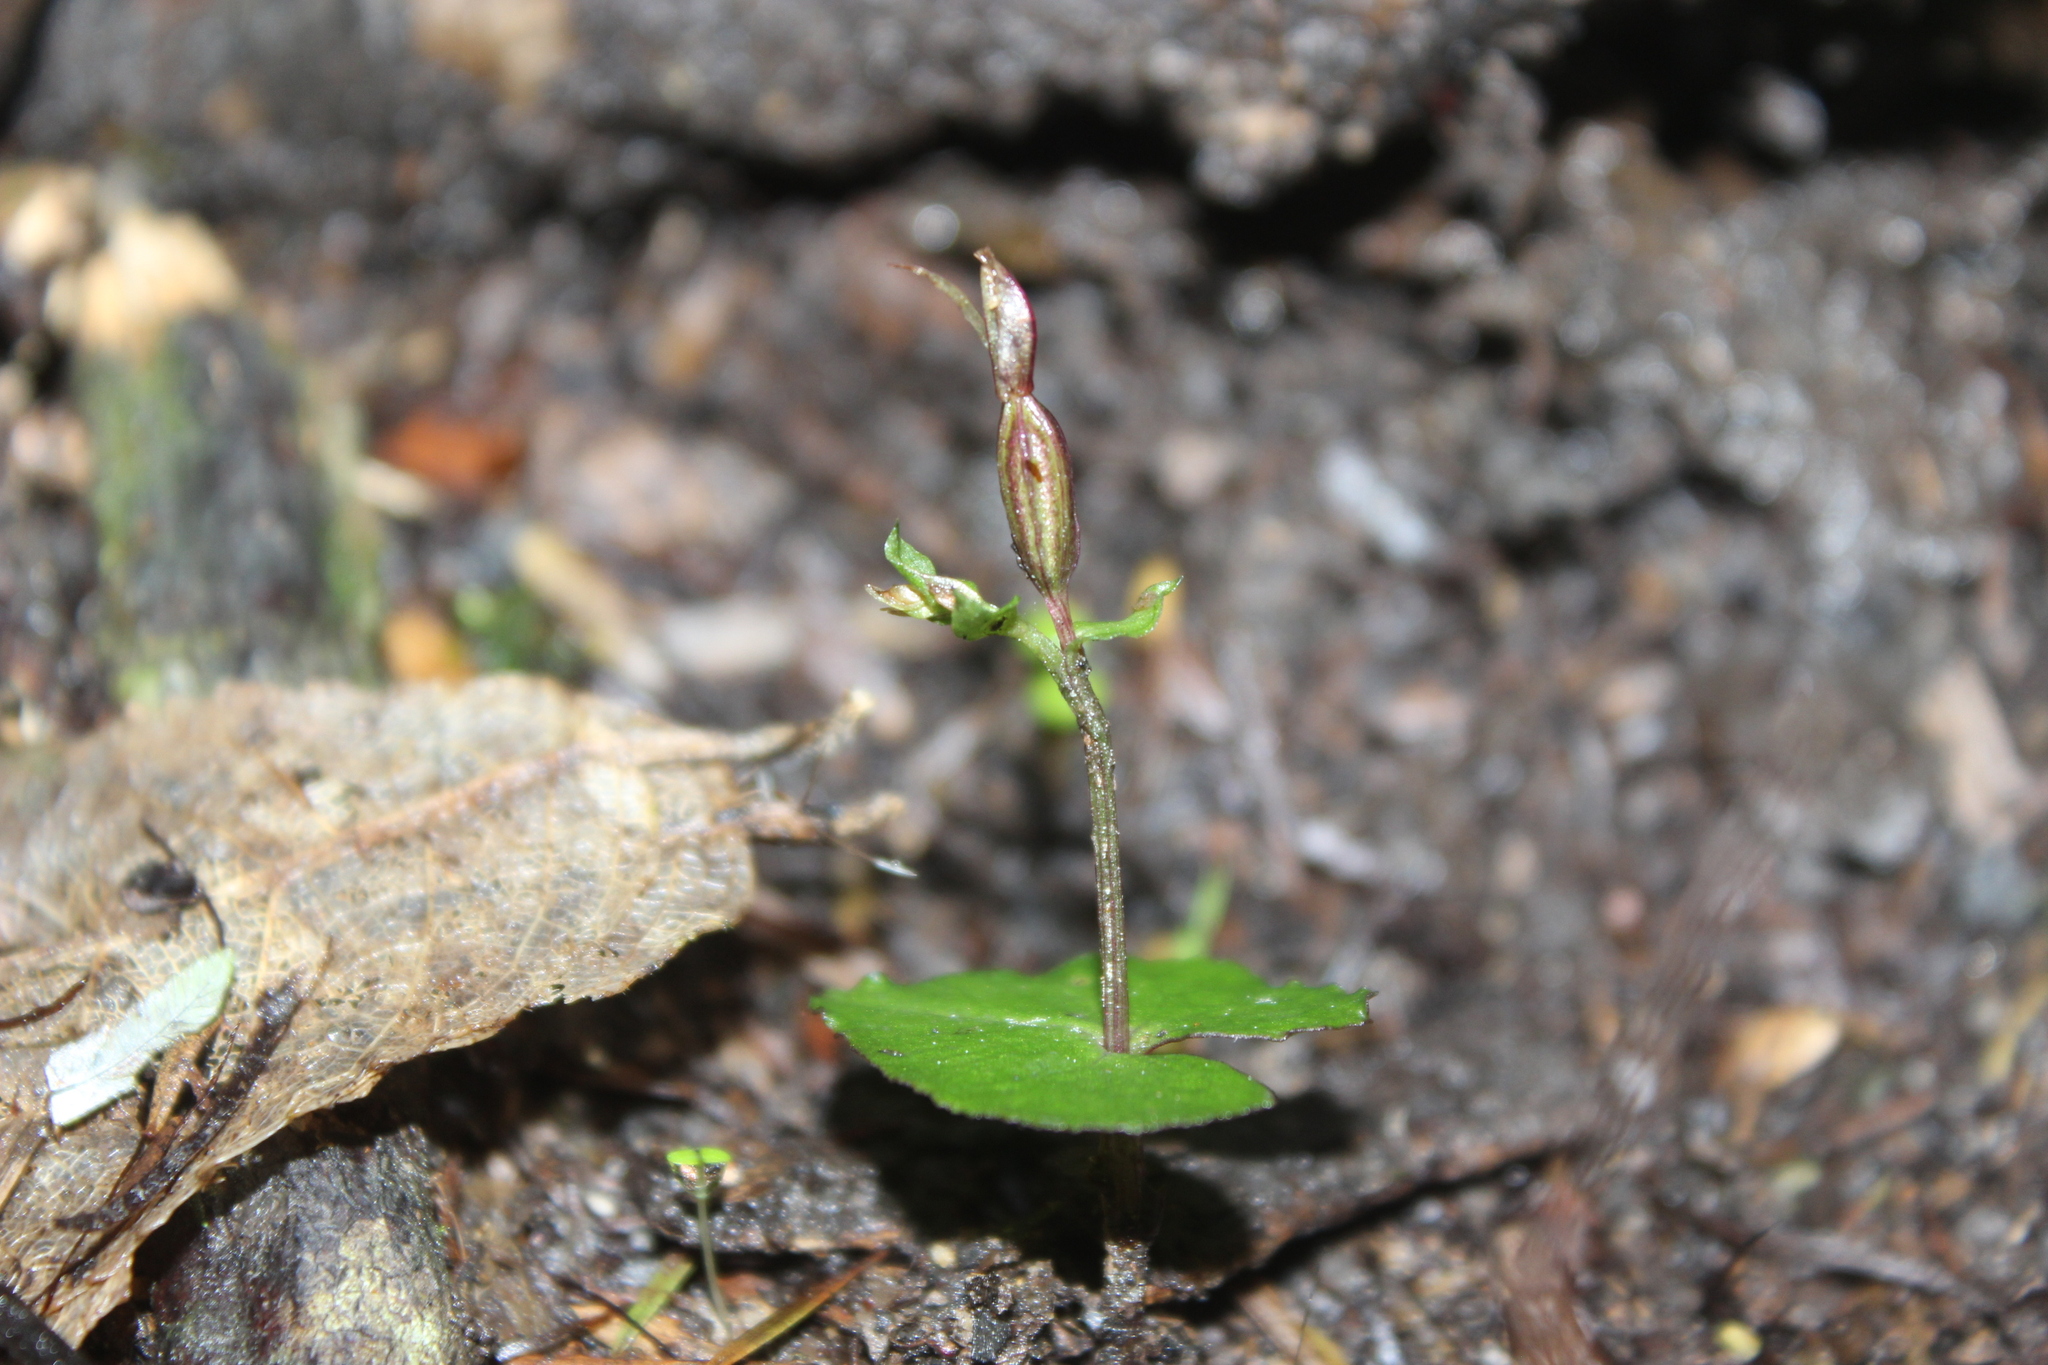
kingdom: Plantae
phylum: Tracheophyta
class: Liliopsida
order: Asparagales
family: Orchidaceae
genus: Acianthus
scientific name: Acianthus sinclairii
